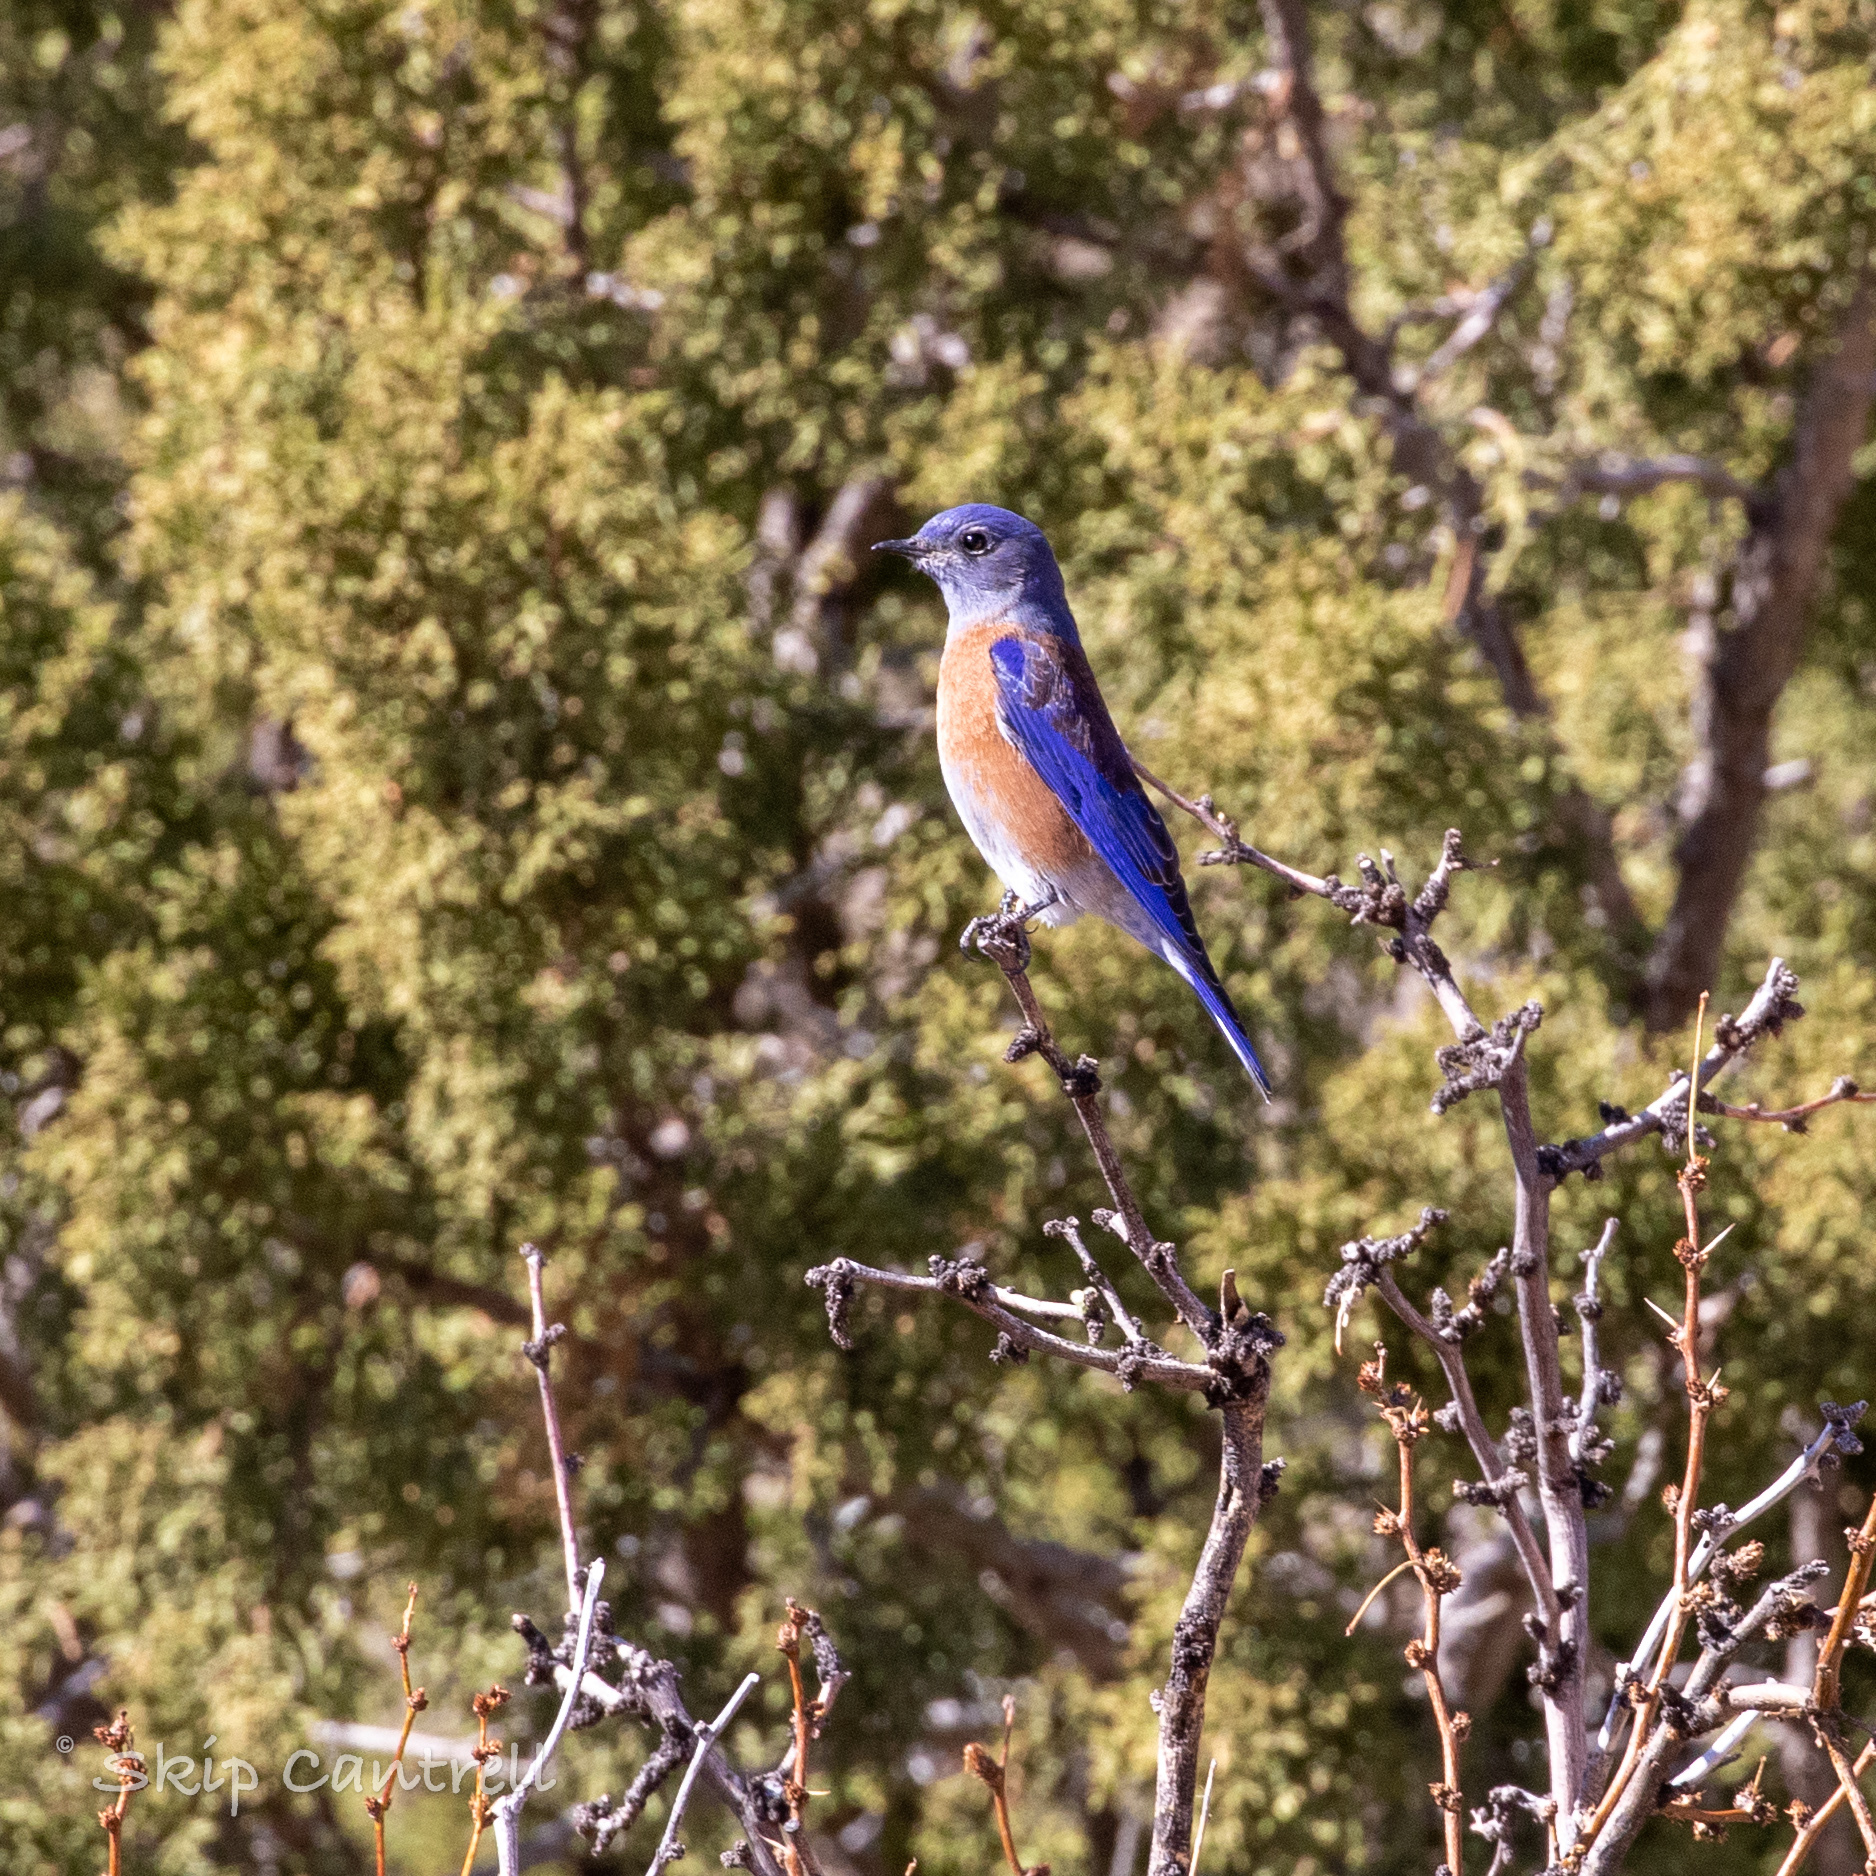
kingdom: Animalia
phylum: Chordata
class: Aves
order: Passeriformes
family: Turdidae
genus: Sialia
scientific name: Sialia mexicana
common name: Western bluebird
